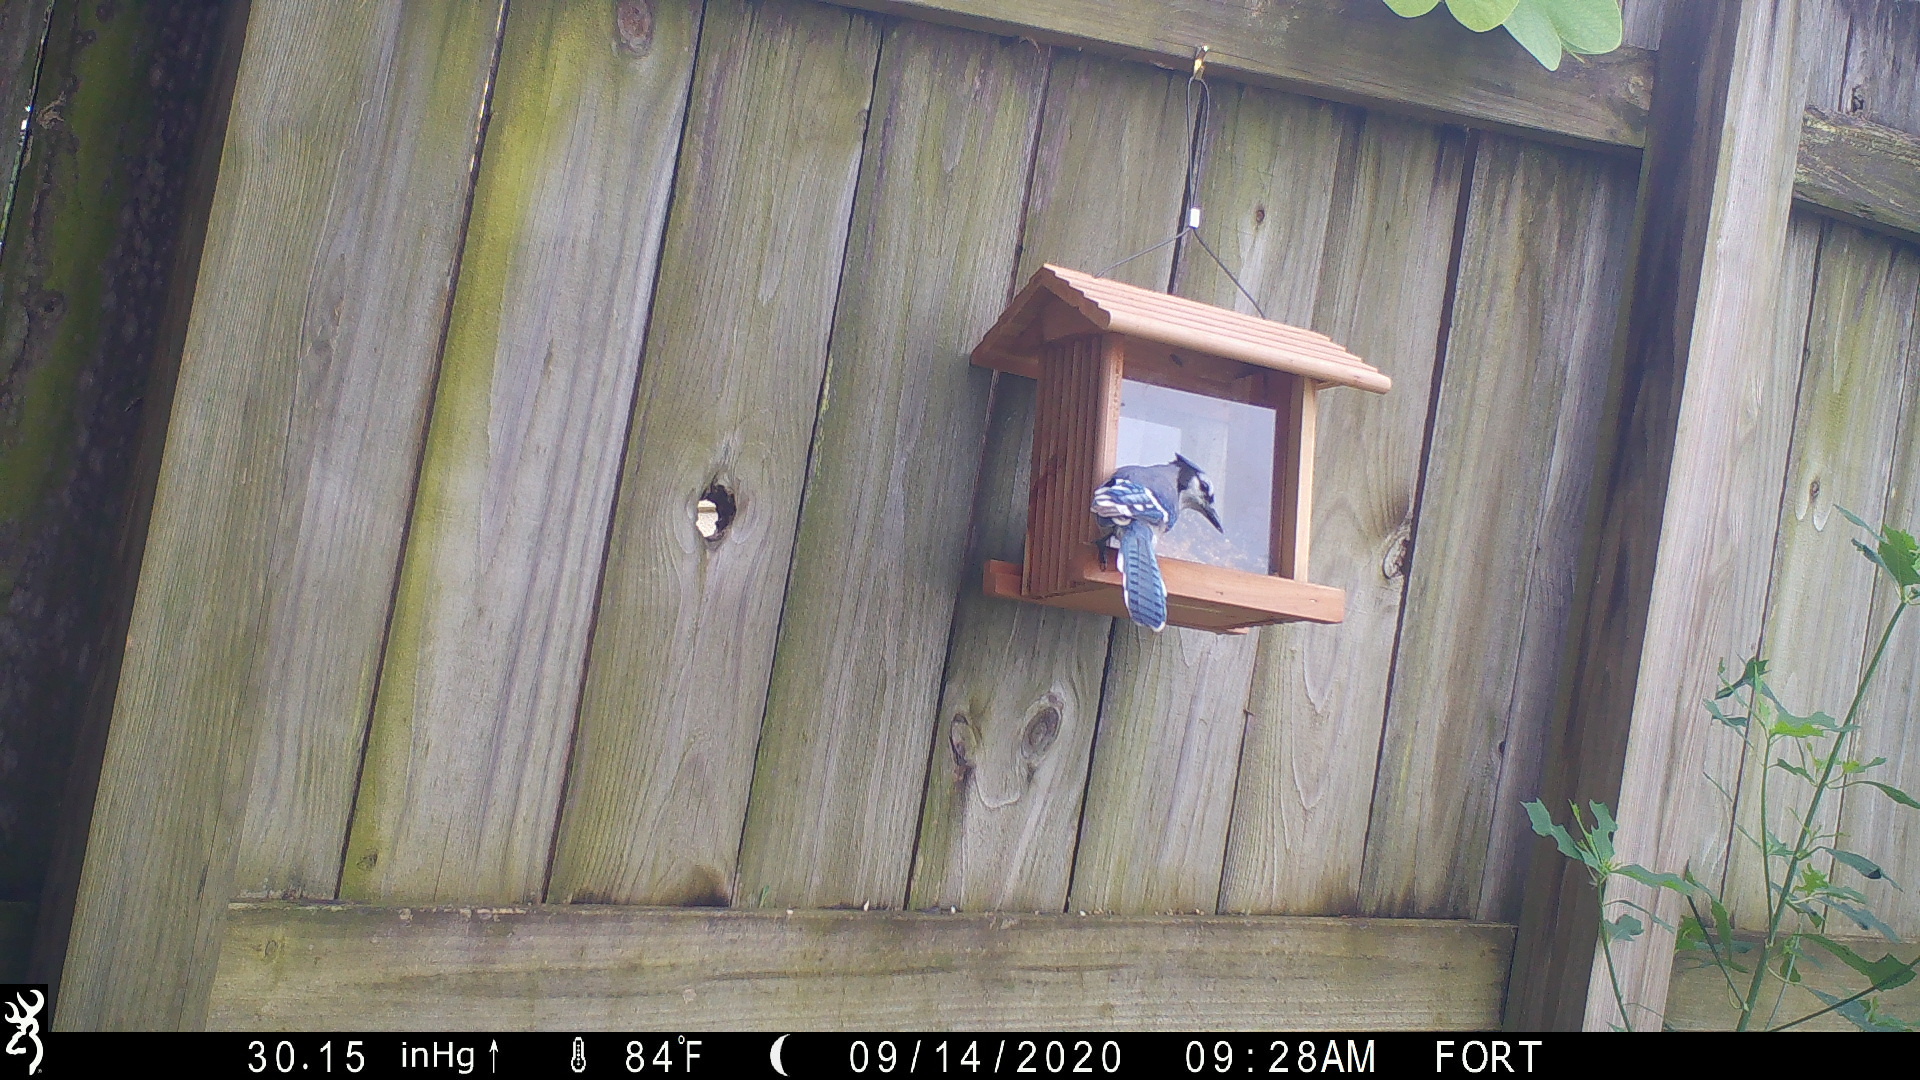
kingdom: Animalia
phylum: Chordata
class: Aves
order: Passeriformes
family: Corvidae
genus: Cyanocitta
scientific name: Cyanocitta cristata
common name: Blue jay
